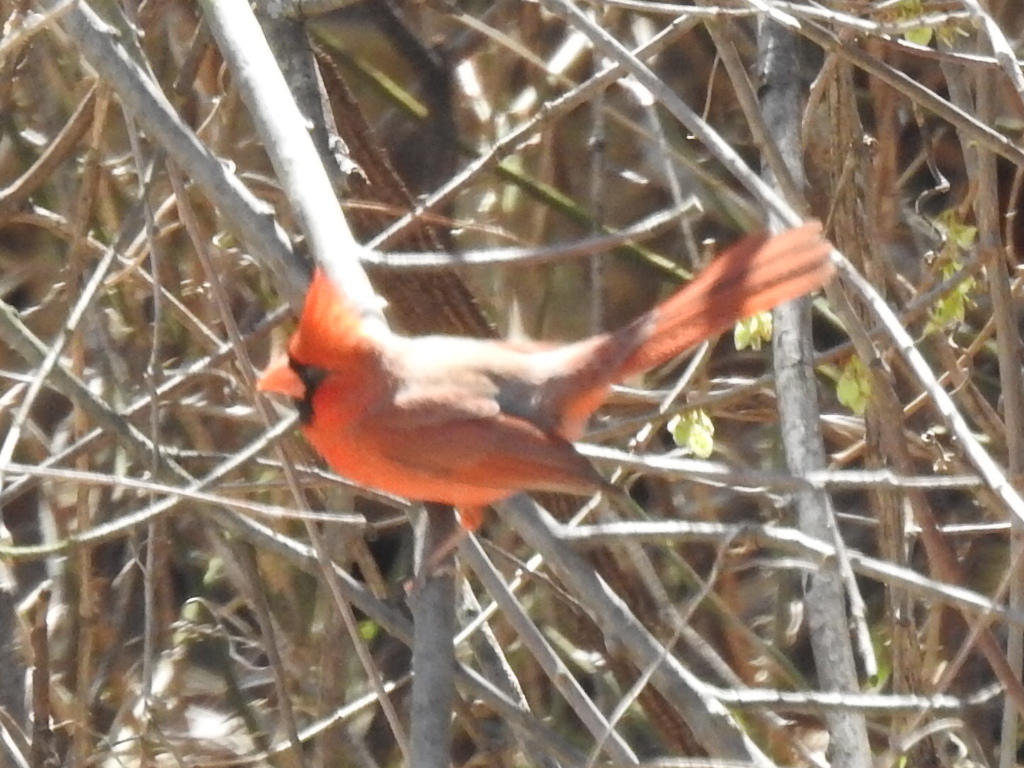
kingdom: Animalia
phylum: Chordata
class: Aves
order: Passeriformes
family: Cardinalidae
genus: Cardinalis
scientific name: Cardinalis cardinalis
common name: Northern cardinal
